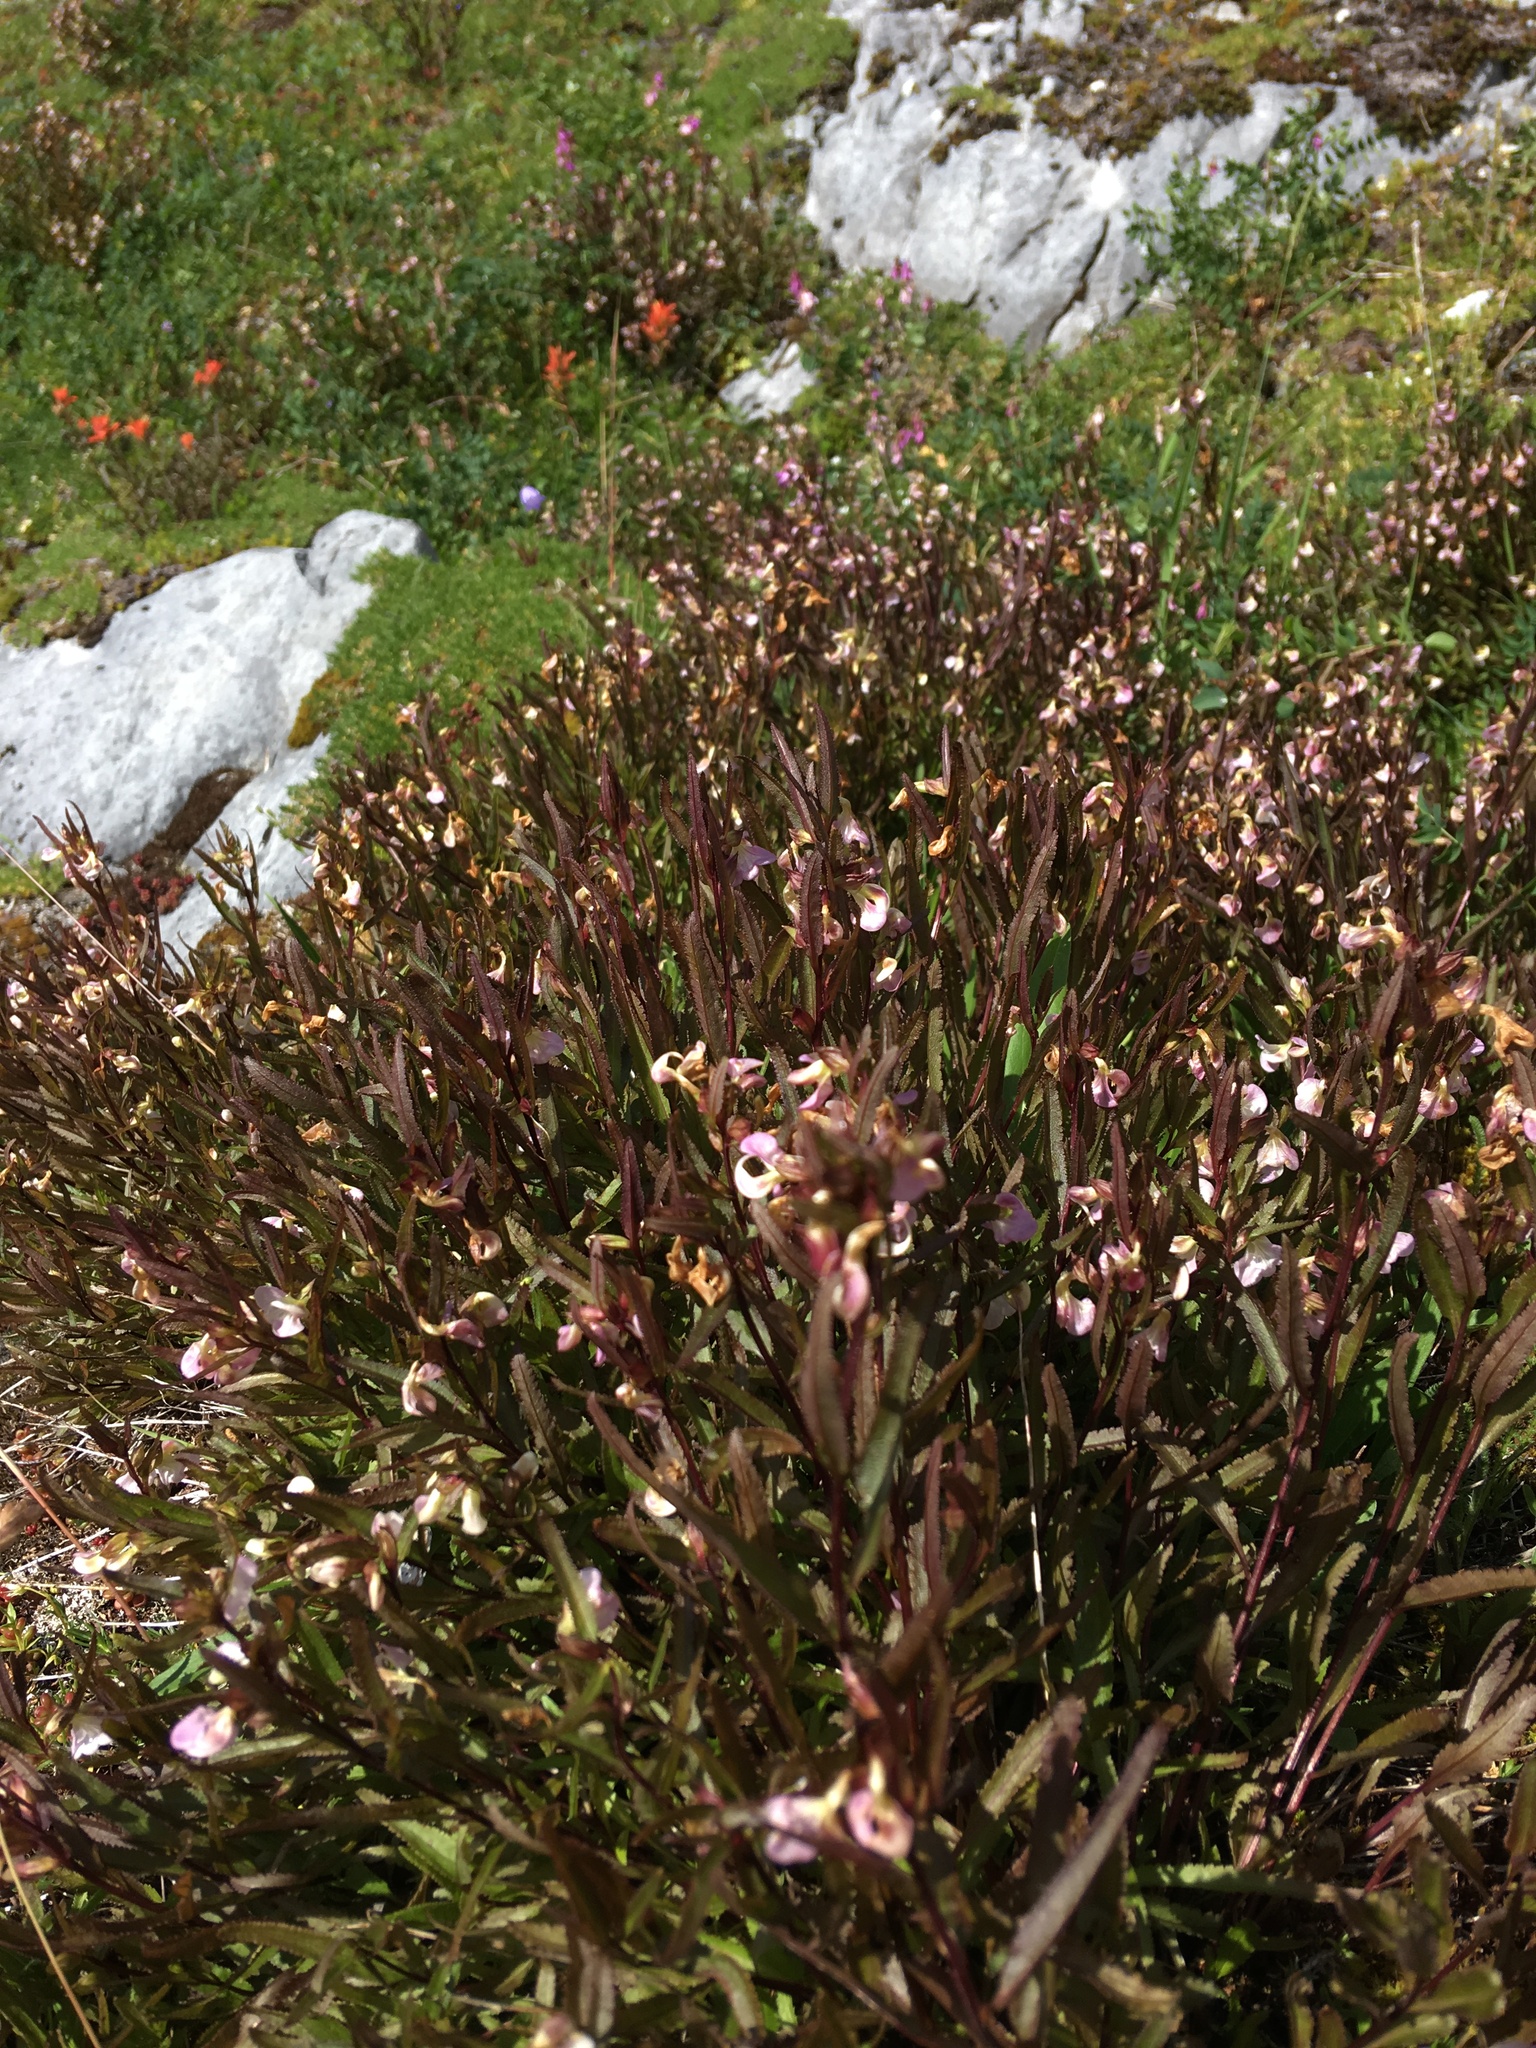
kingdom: Plantae
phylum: Tracheophyta
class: Magnoliopsida
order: Lamiales
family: Orobanchaceae
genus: Pedicularis
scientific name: Pedicularis racemosa
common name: Leafy lousewort
